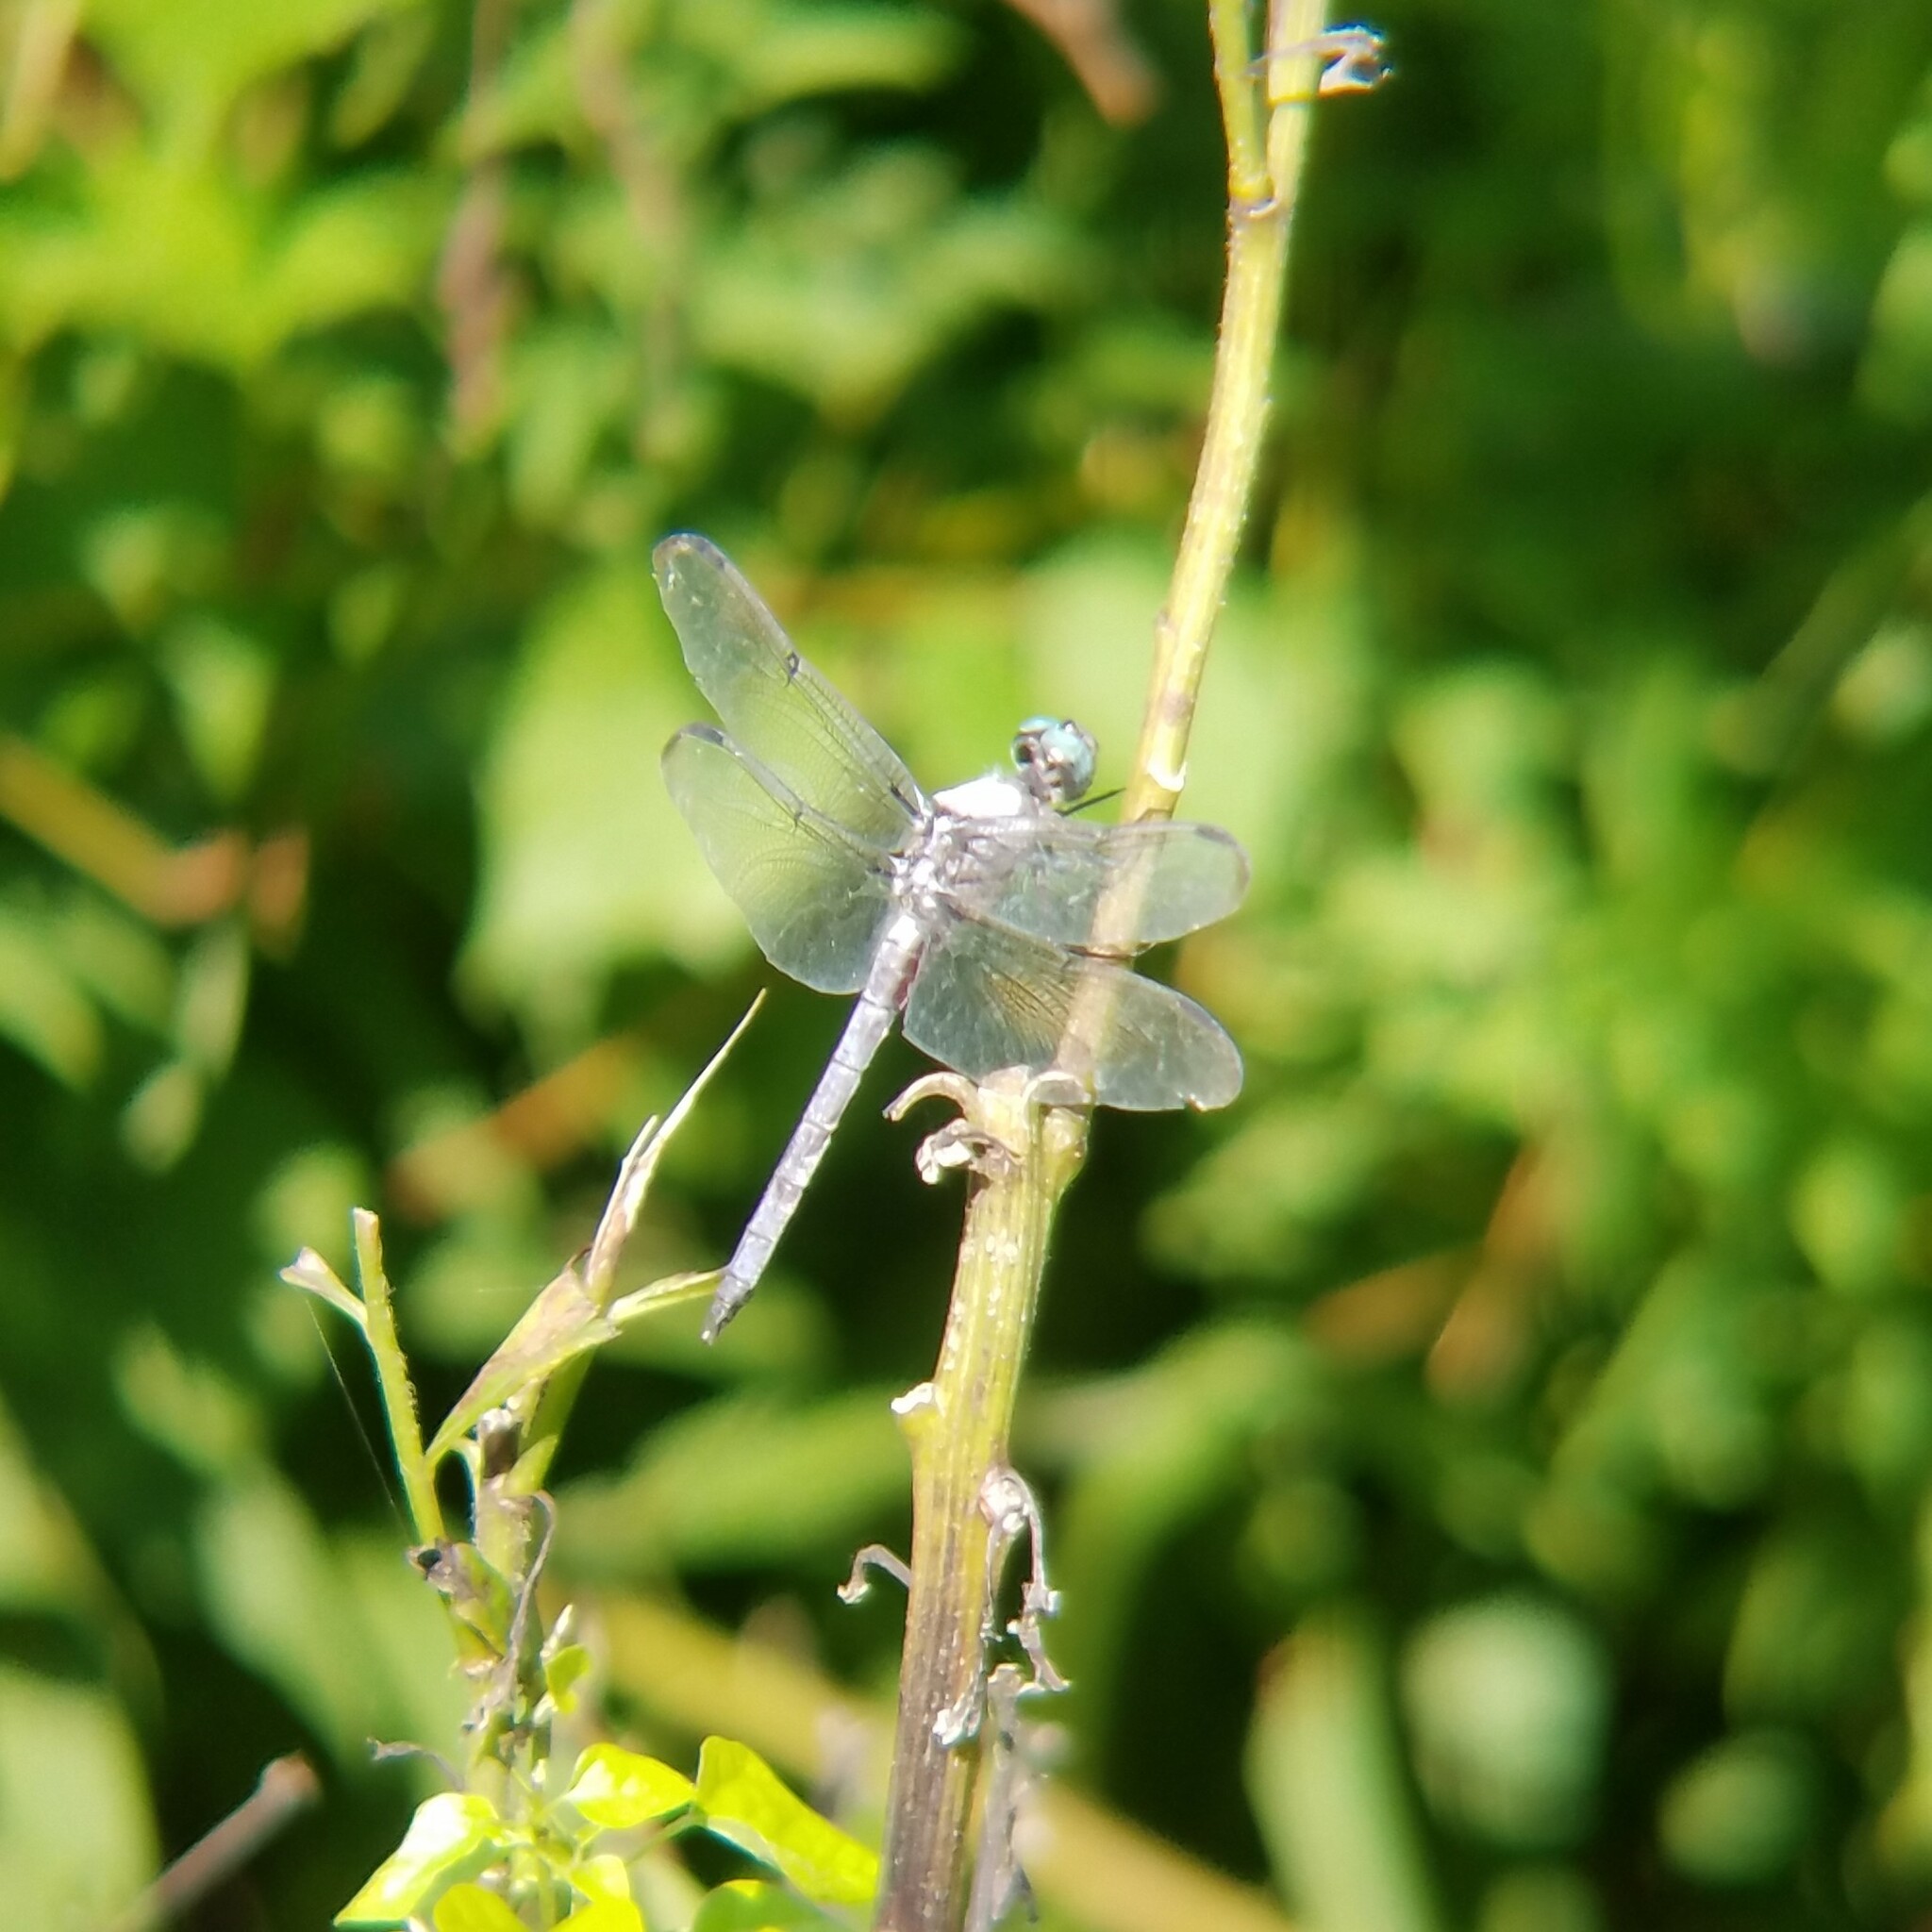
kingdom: Animalia
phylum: Arthropoda
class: Insecta
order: Odonata
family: Libellulidae
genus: Libellula
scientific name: Libellula vibrans
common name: Great blue skimmer
